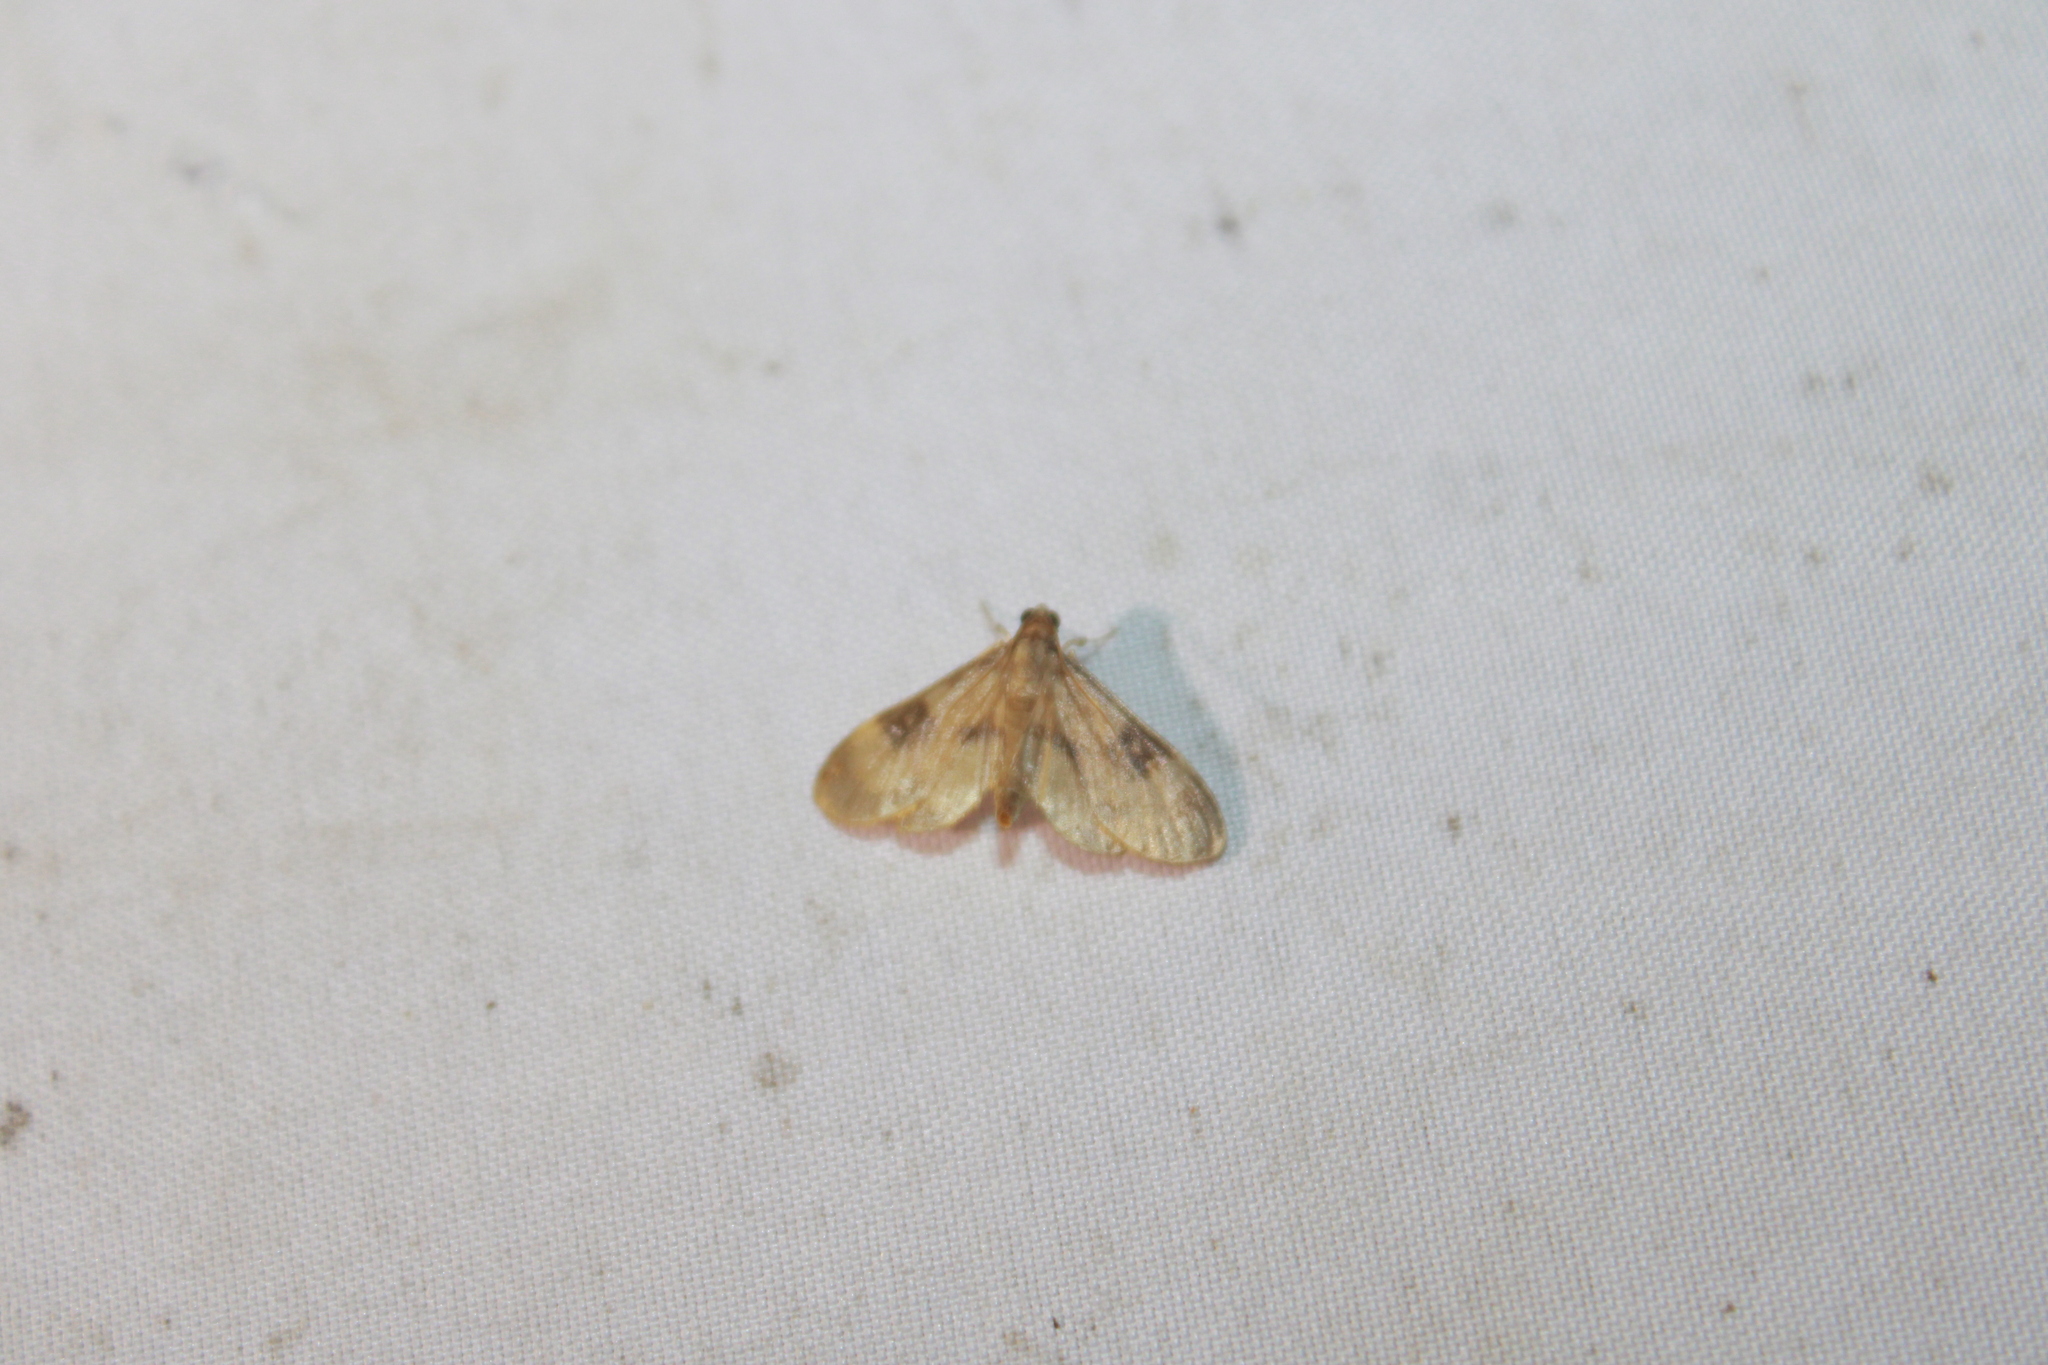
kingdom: Animalia
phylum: Arthropoda
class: Insecta
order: Lepidoptera
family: Crambidae
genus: Lygropia
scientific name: Lygropia fusalis
